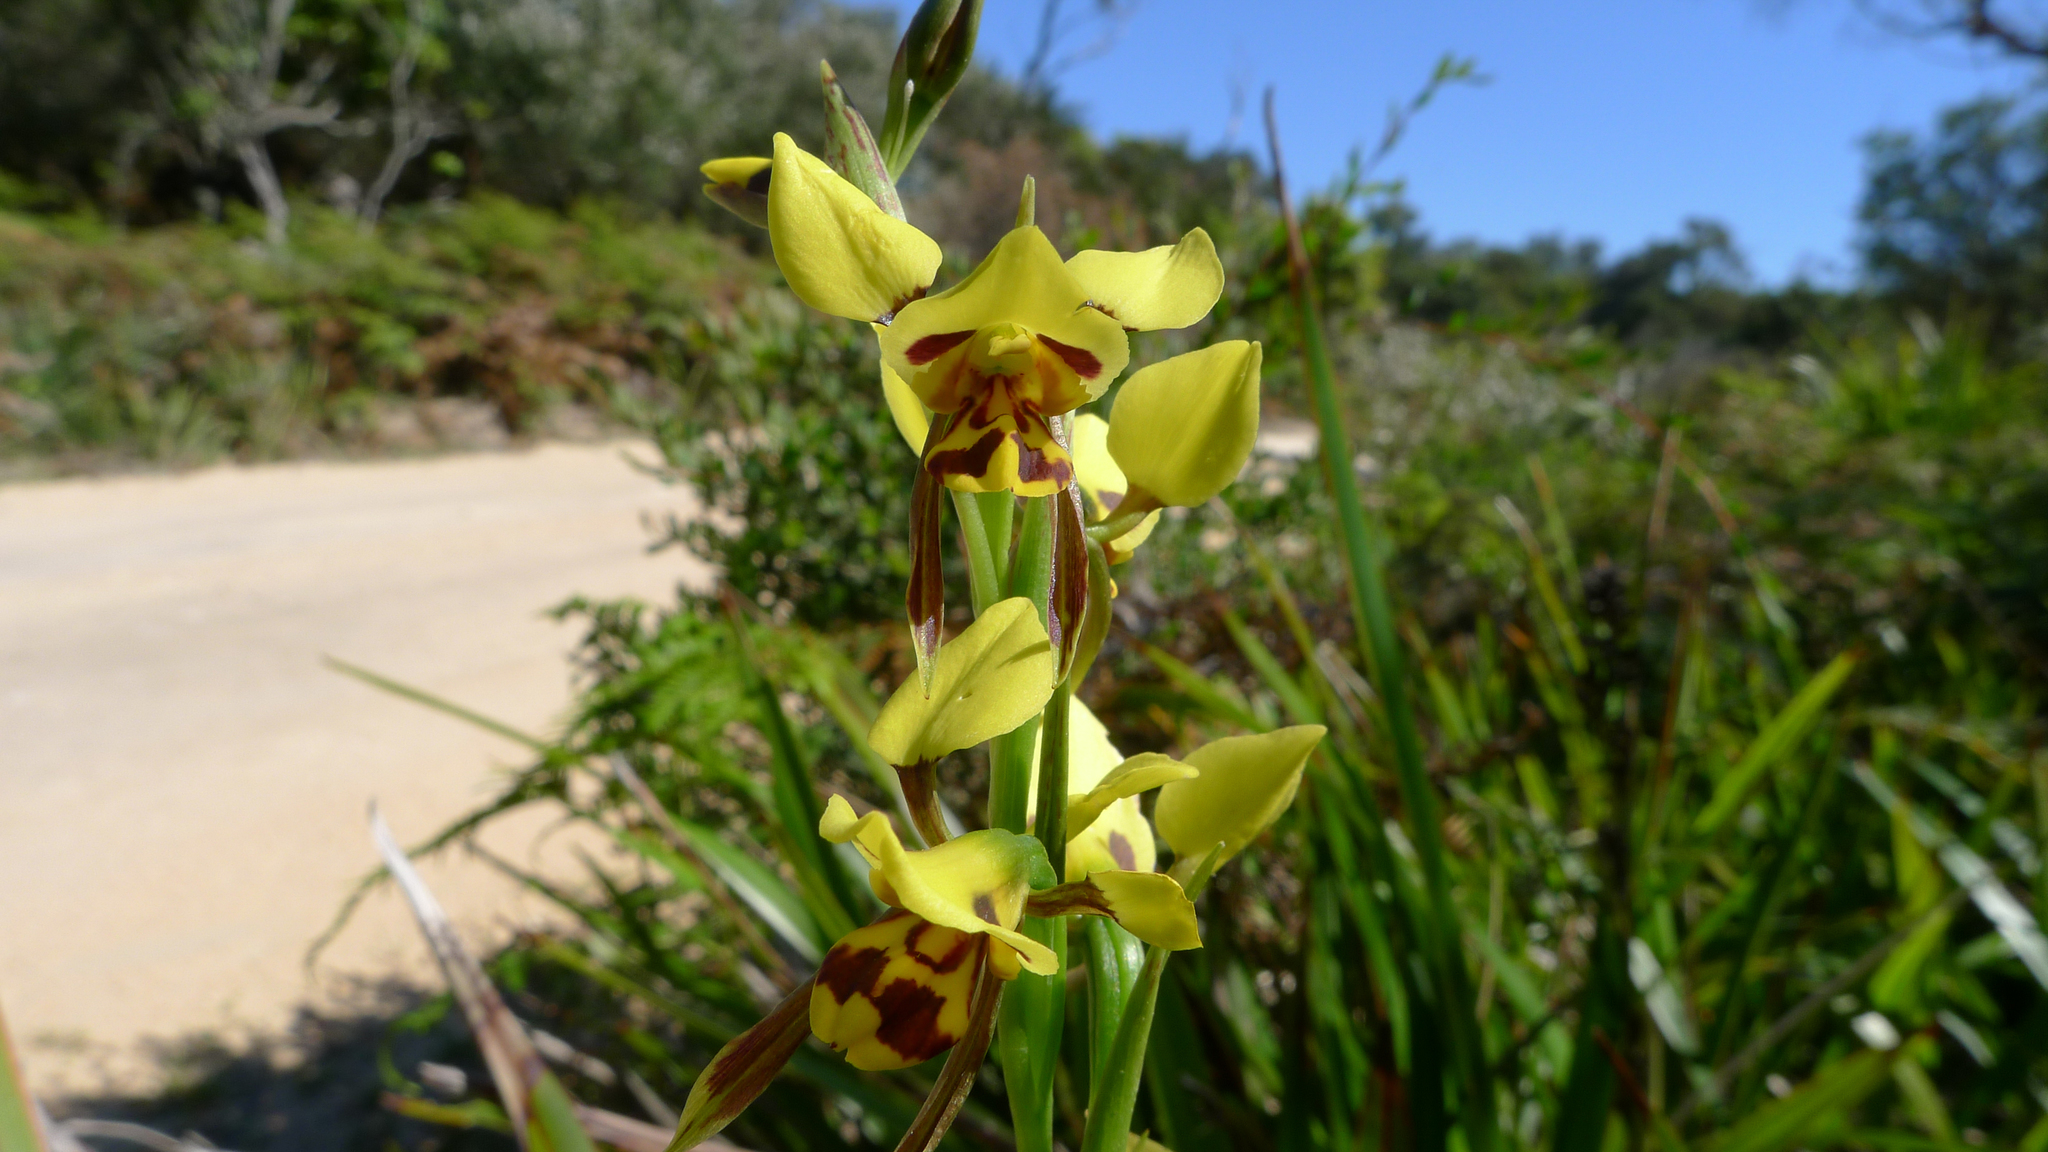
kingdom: Plantae
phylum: Tracheophyta
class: Liliopsida
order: Asparagales
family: Orchidaceae
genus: Diuris
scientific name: Diuris sulphurea
